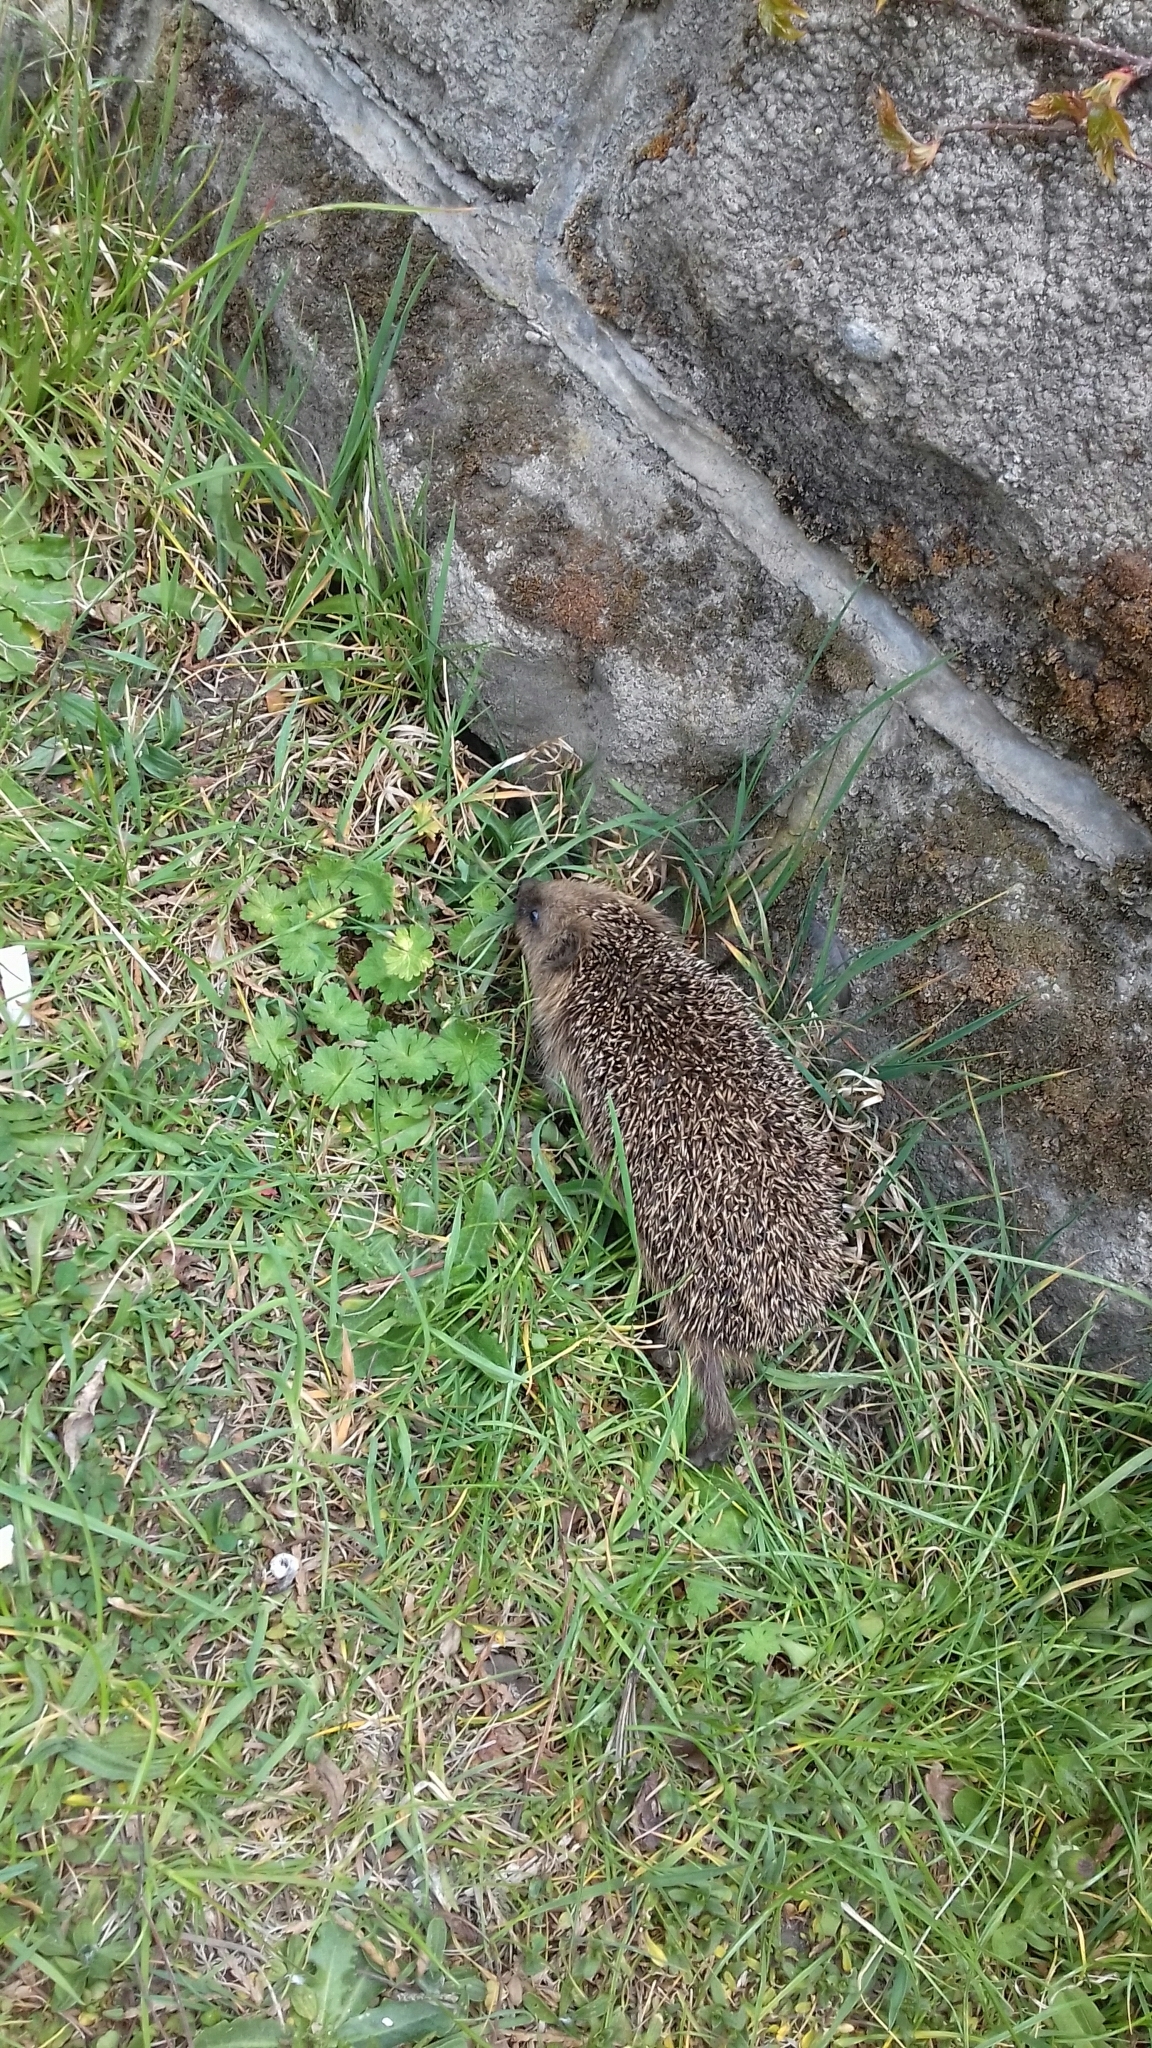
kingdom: Animalia
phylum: Chordata
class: Mammalia
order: Erinaceomorpha
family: Erinaceidae
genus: Erinaceus
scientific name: Erinaceus europaeus
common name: West european hedgehog
